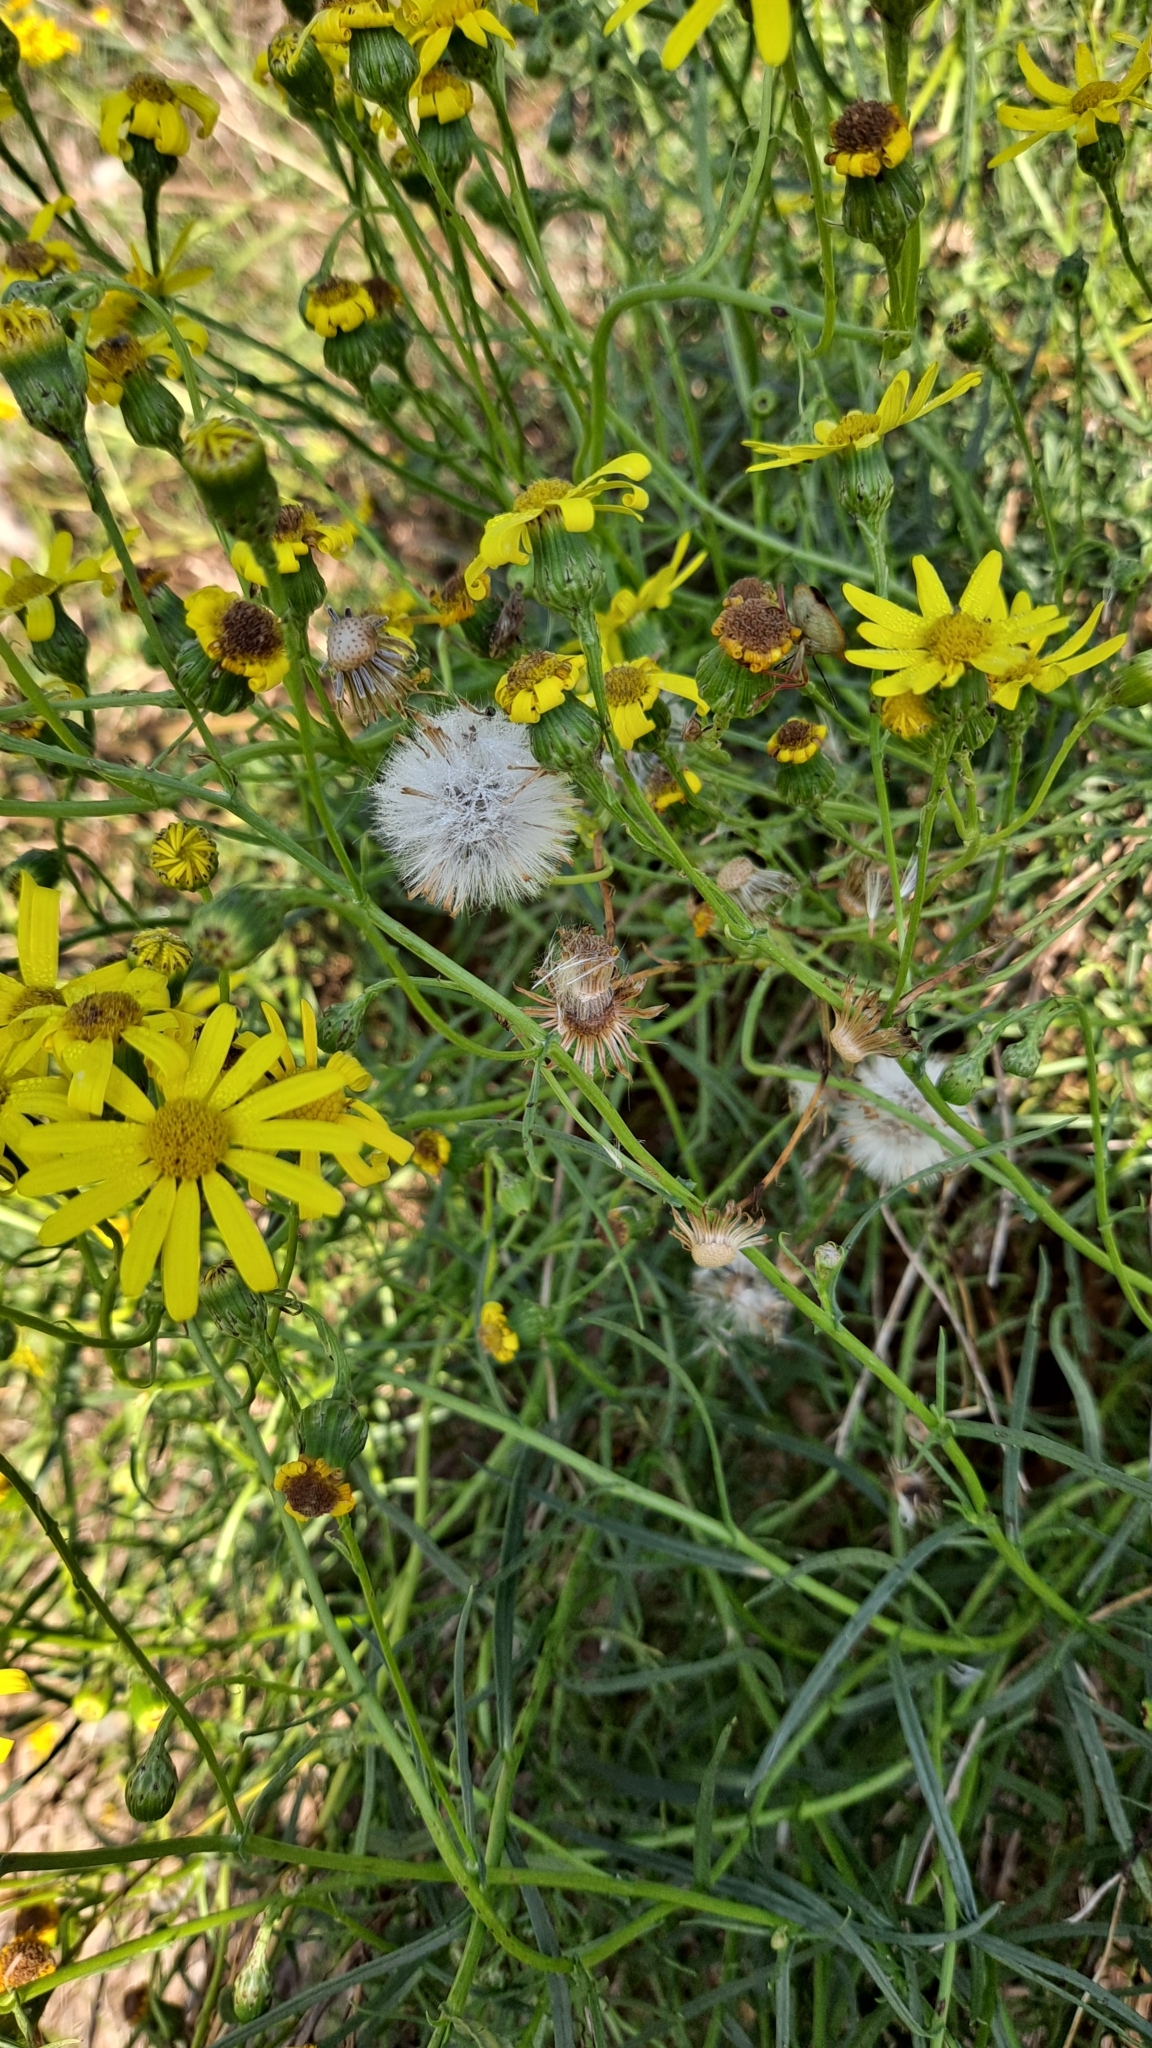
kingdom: Plantae
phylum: Tracheophyta
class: Magnoliopsida
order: Asterales
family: Asteraceae
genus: Senecio
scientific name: Senecio inaequidens
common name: Narrow-leaved ragwort
